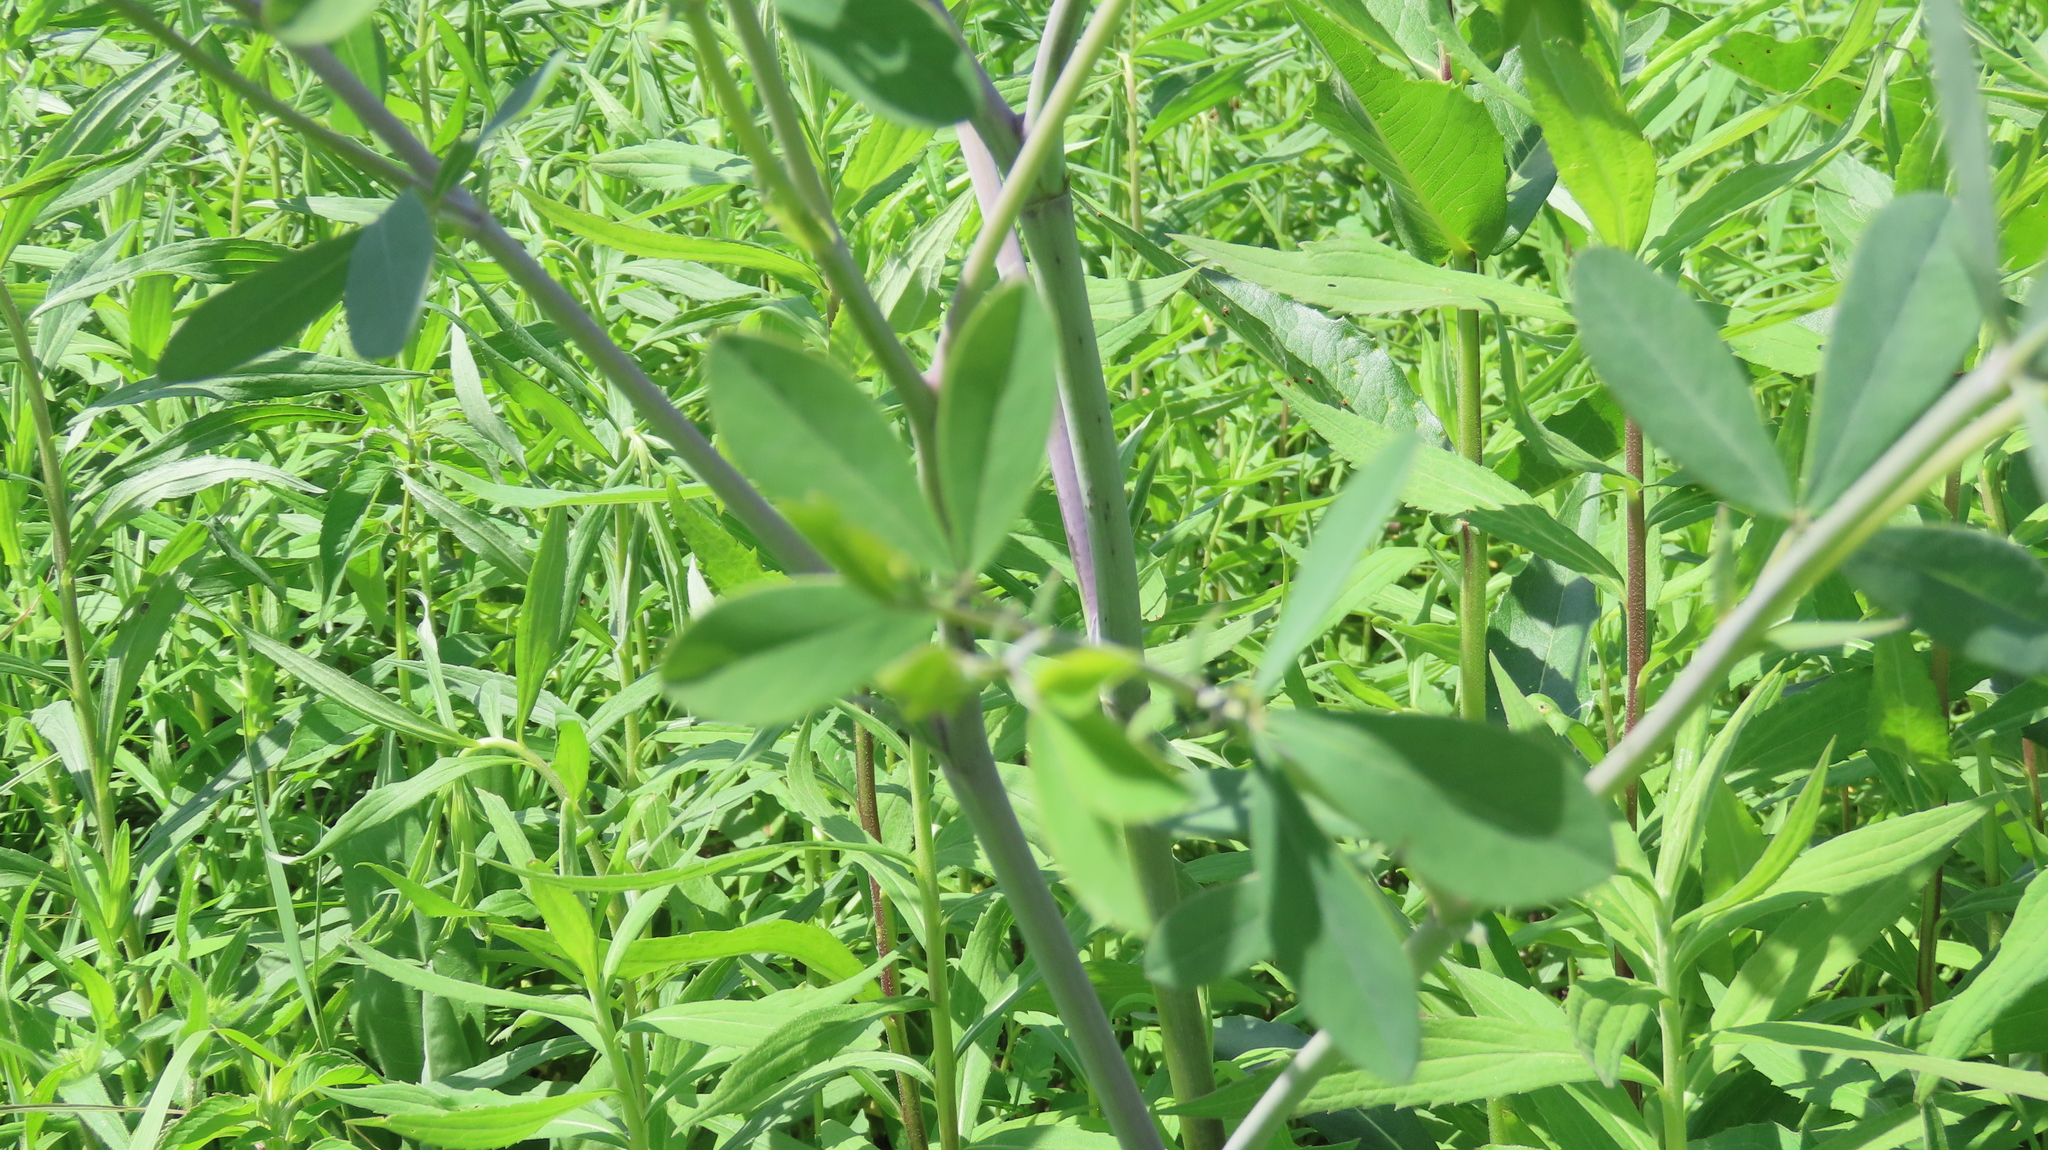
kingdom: Plantae
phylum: Tracheophyta
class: Magnoliopsida
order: Fabales
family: Fabaceae
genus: Baptisia
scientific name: Baptisia alba
